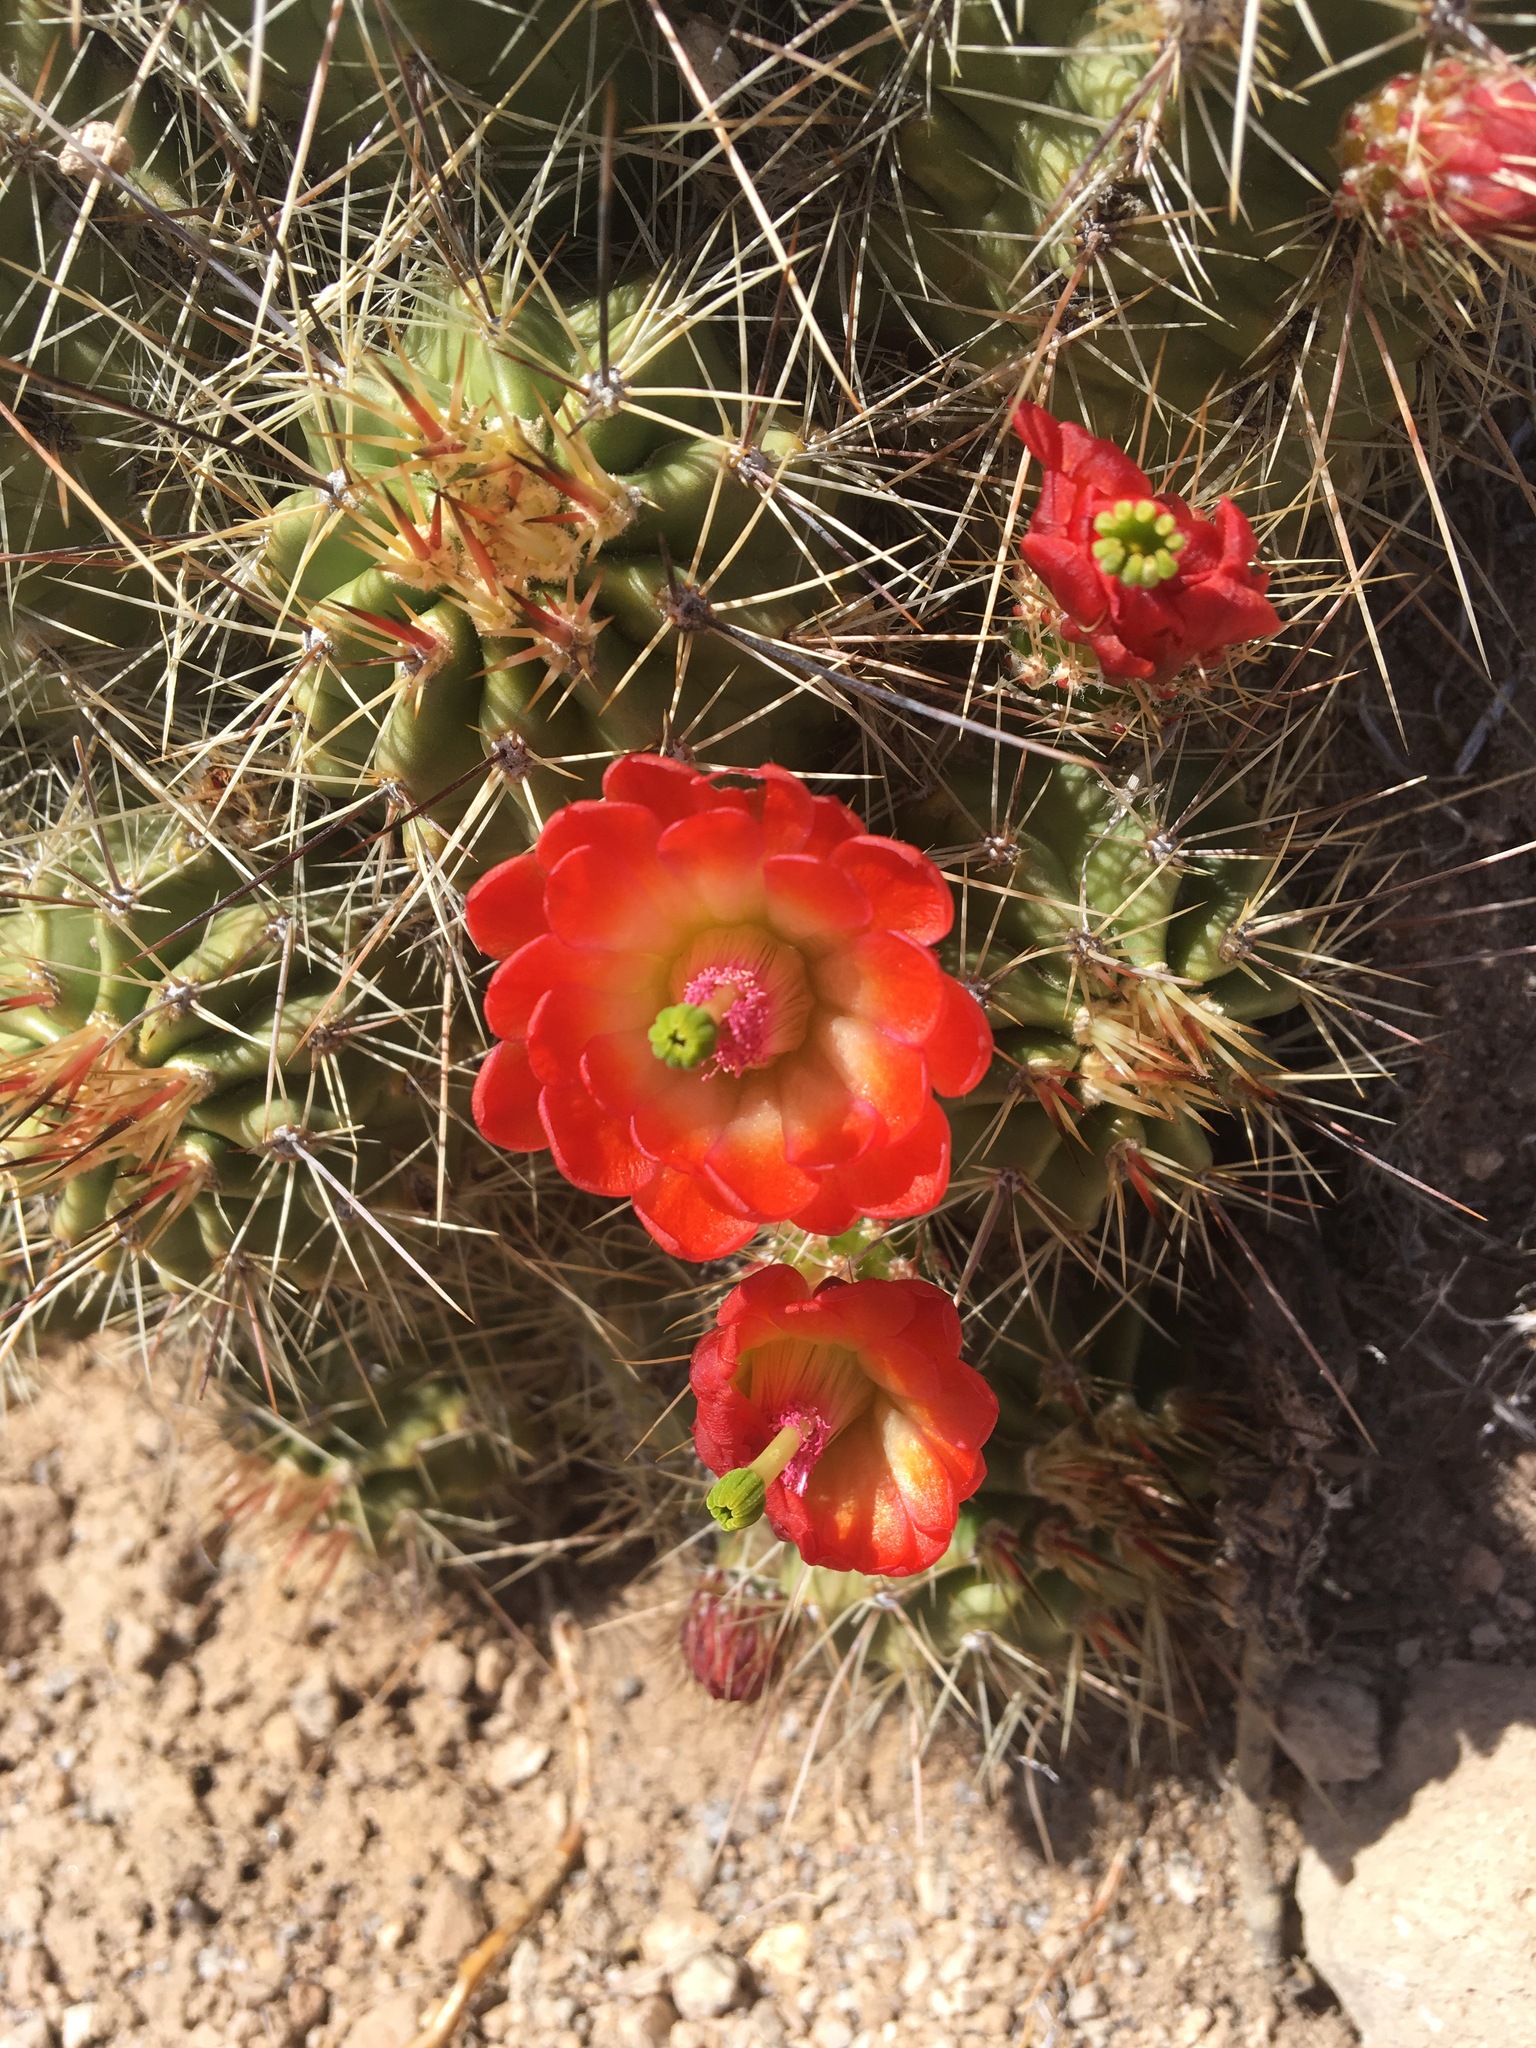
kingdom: Plantae
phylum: Tracheophyta
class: Magnoliopsida
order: Caryophyllales
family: Cactaceae
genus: Echinocereus
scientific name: Echinocereus coccineus
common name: Scarlet hedgehog cactus
